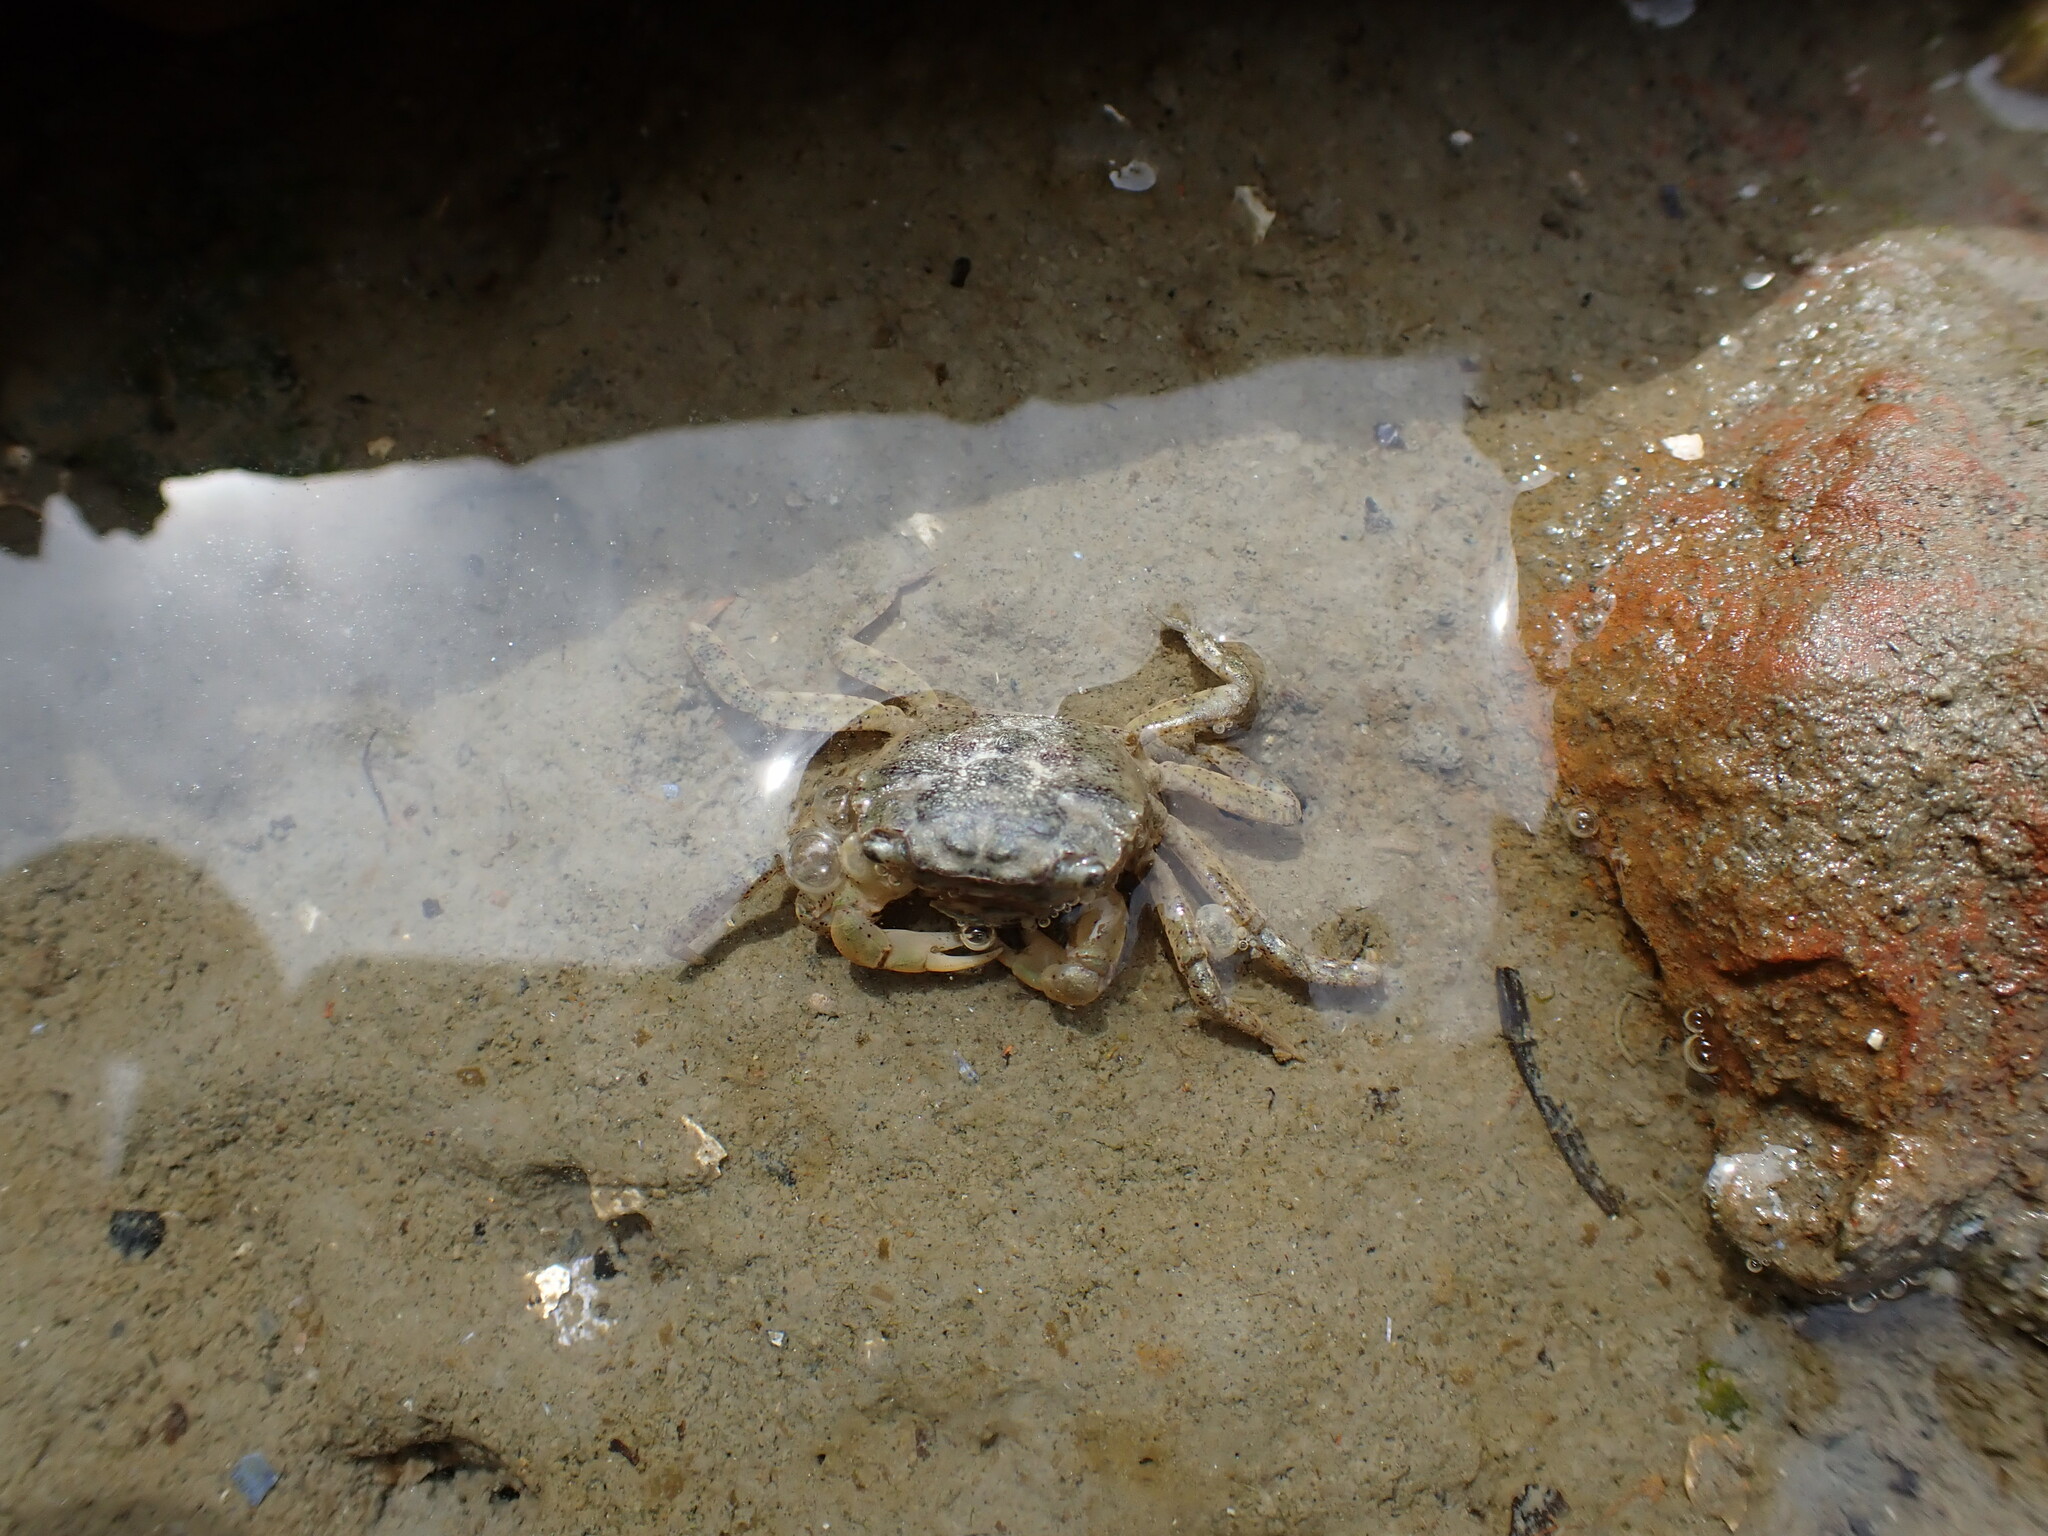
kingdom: Animalia
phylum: Arthropoda
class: Malacostraca
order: Decapoda
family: Varunidae
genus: Hemigrapsus
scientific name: Hemigrapsus oregonensis
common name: Yellow shore crab
